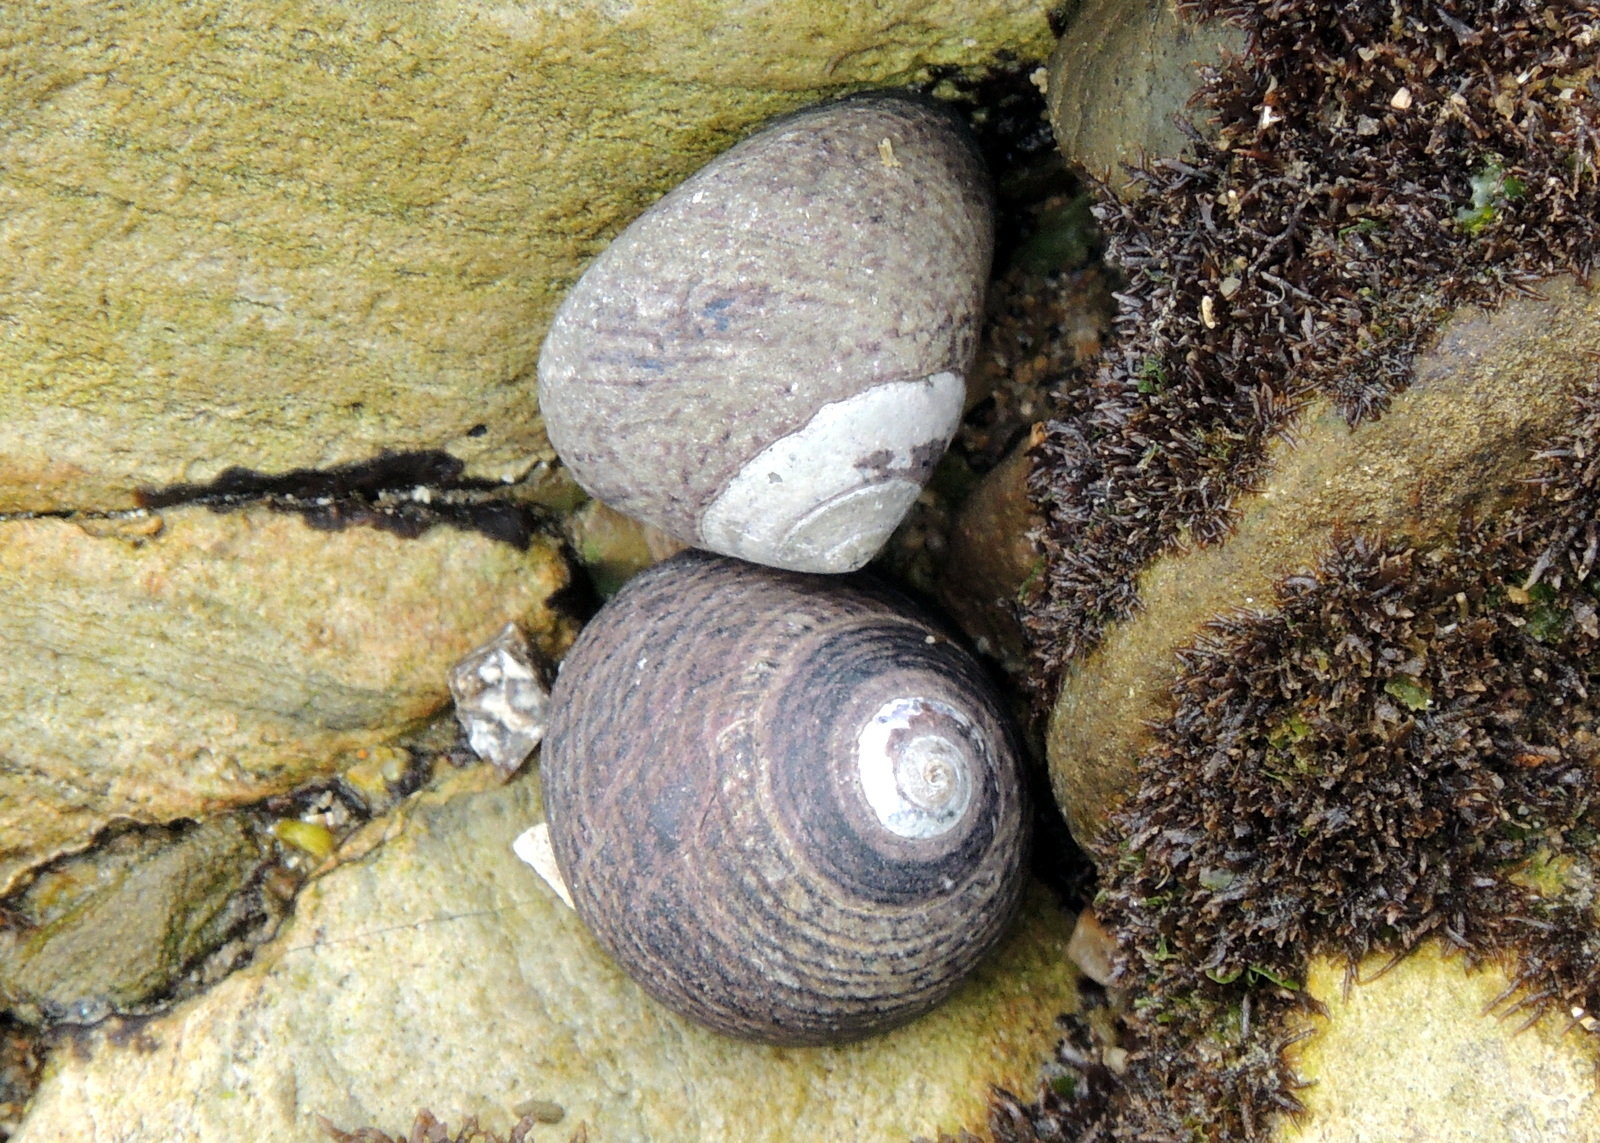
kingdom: Animalia
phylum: Mollusca
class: Gastropoda
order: Trochida
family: Tegulidae
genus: Tegula
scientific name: Tegula funebralis
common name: Black tegula
